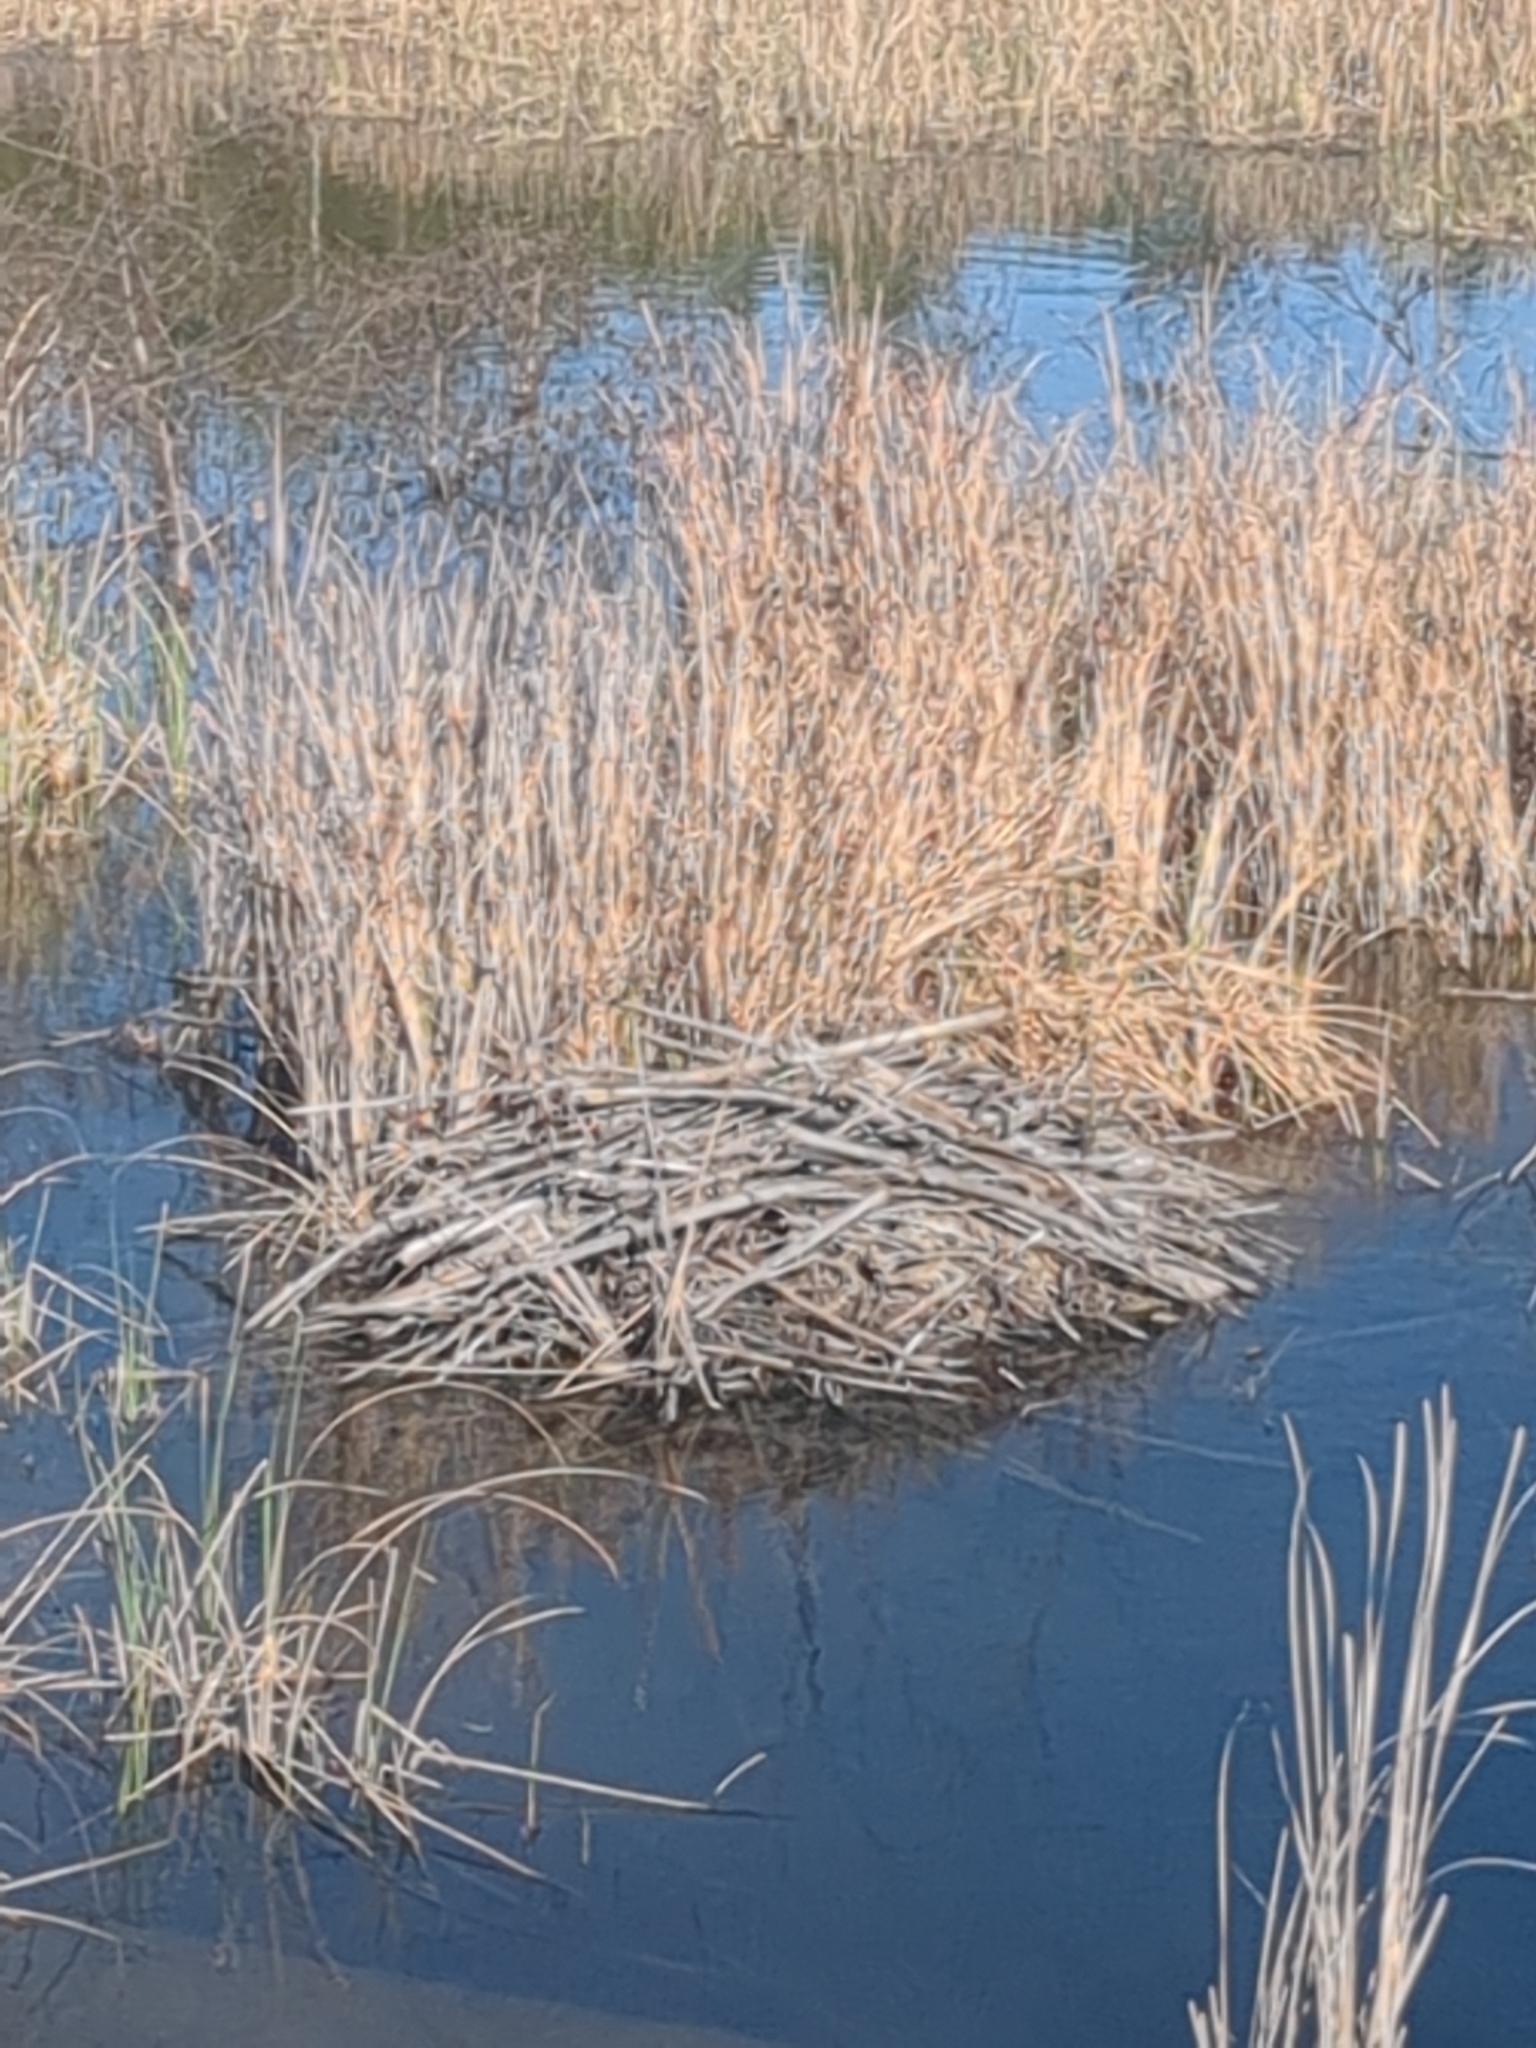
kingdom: Animalia
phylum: Chordata
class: Mammalia
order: Rodentia
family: Castoridae
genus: Castor
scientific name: Castor canadensis
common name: American beaver
